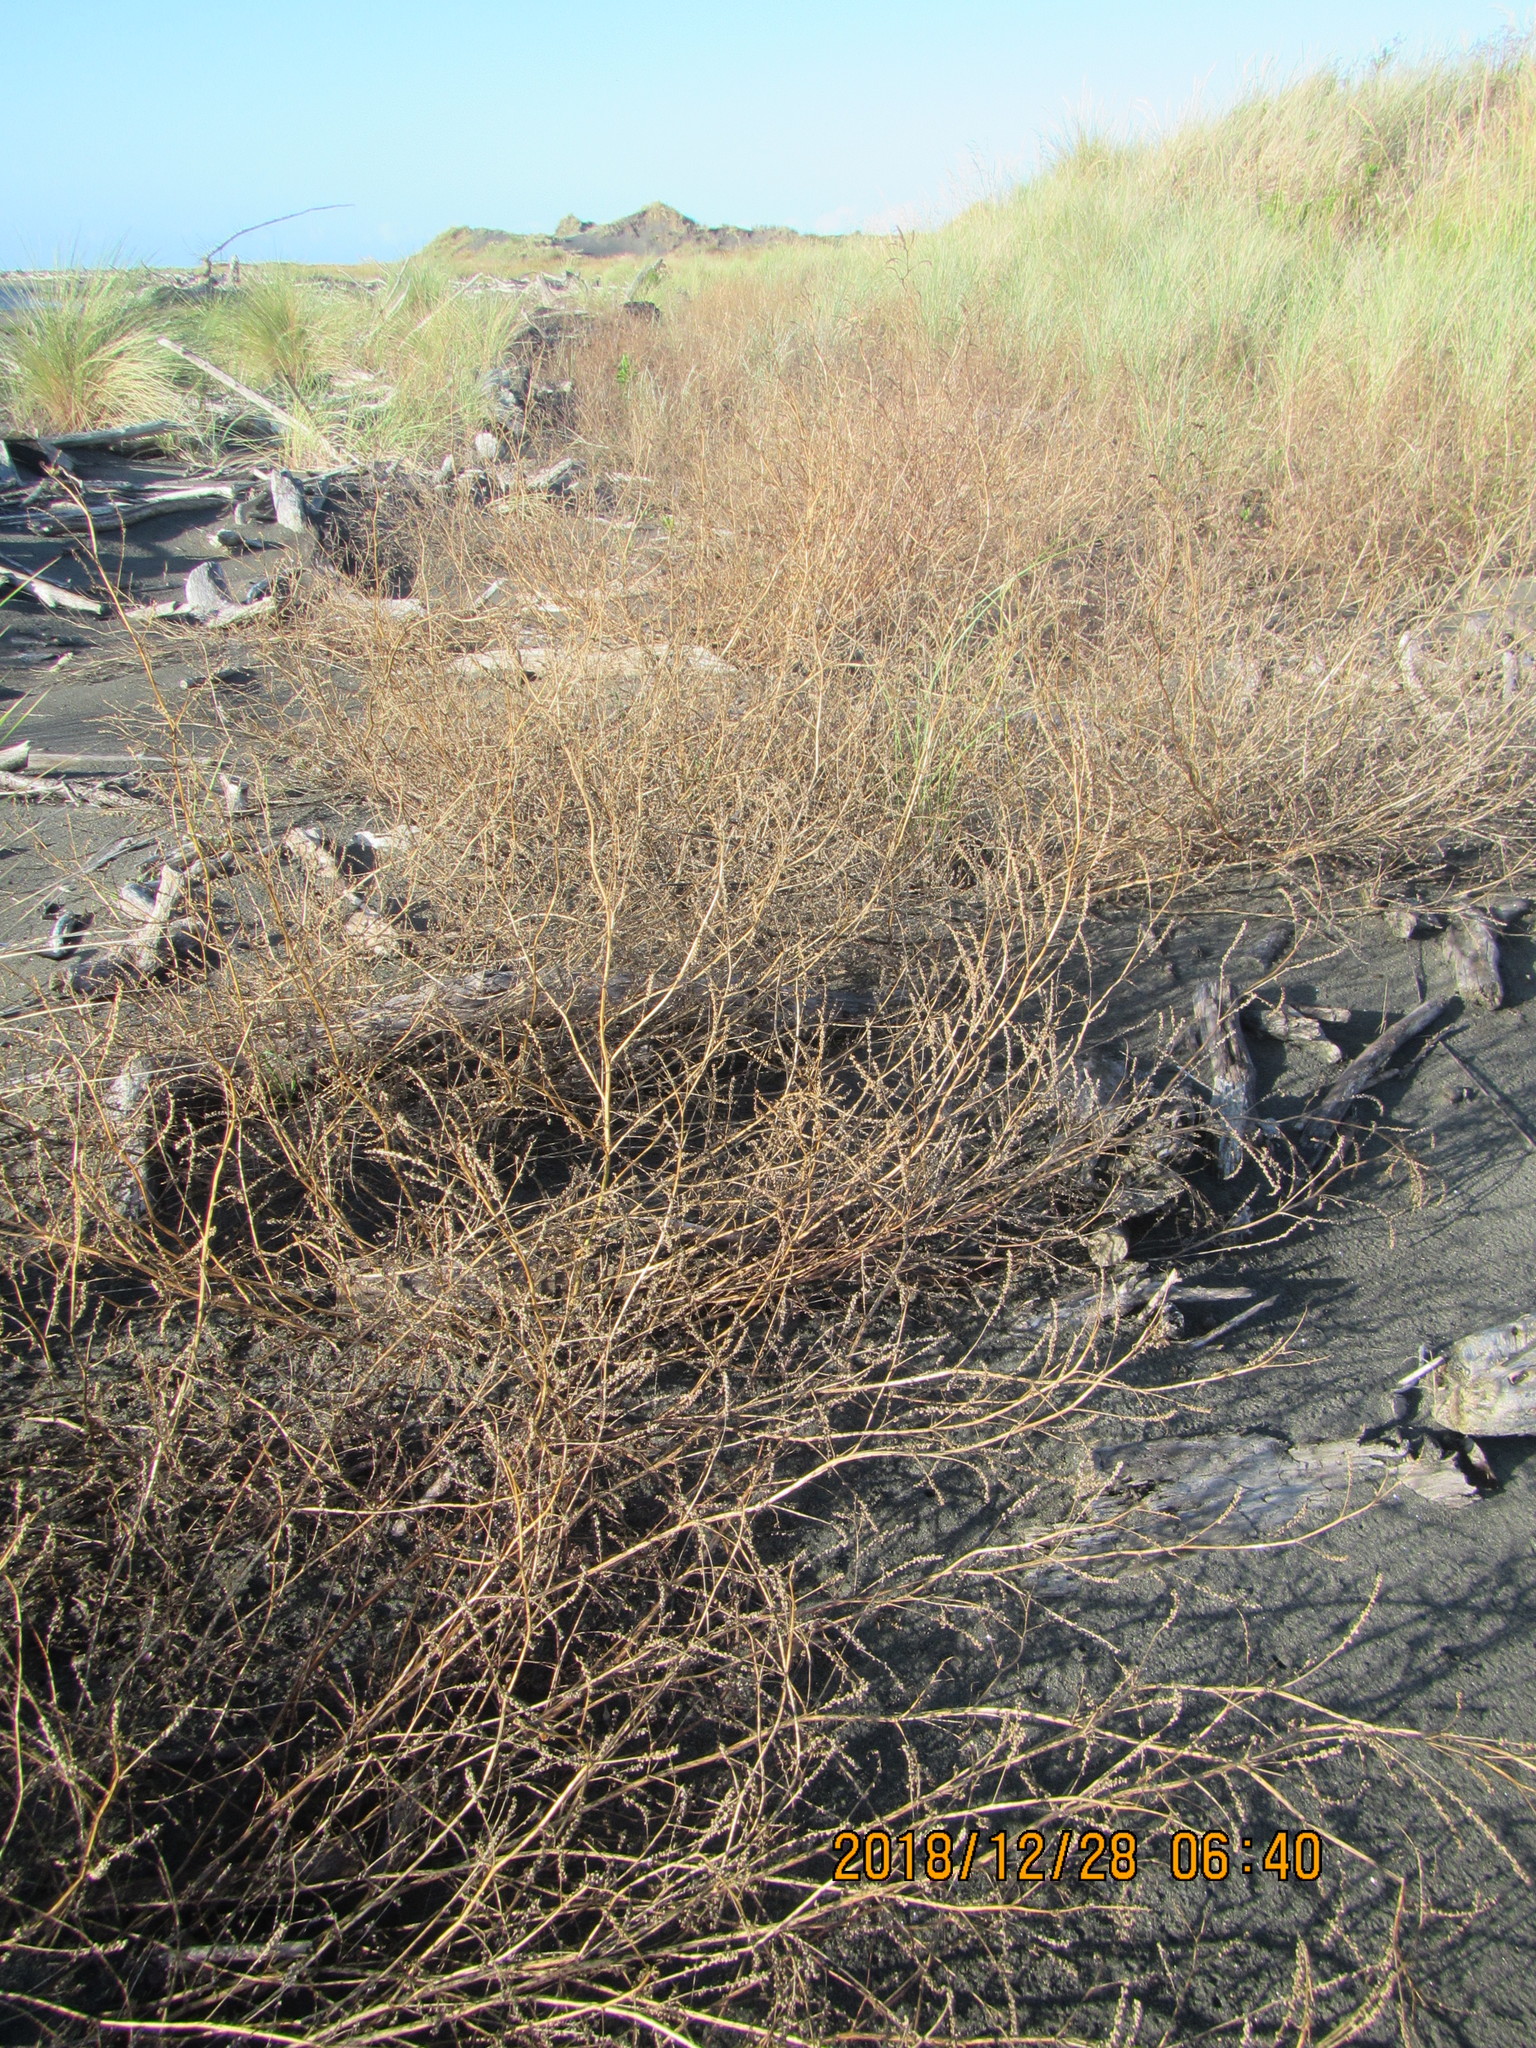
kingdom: Plantae
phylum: Tracheophyta
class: Magnoliopsida
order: Fabales
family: Fabaceae
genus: Melilotus
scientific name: Melilotus indicus
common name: Small melilot
